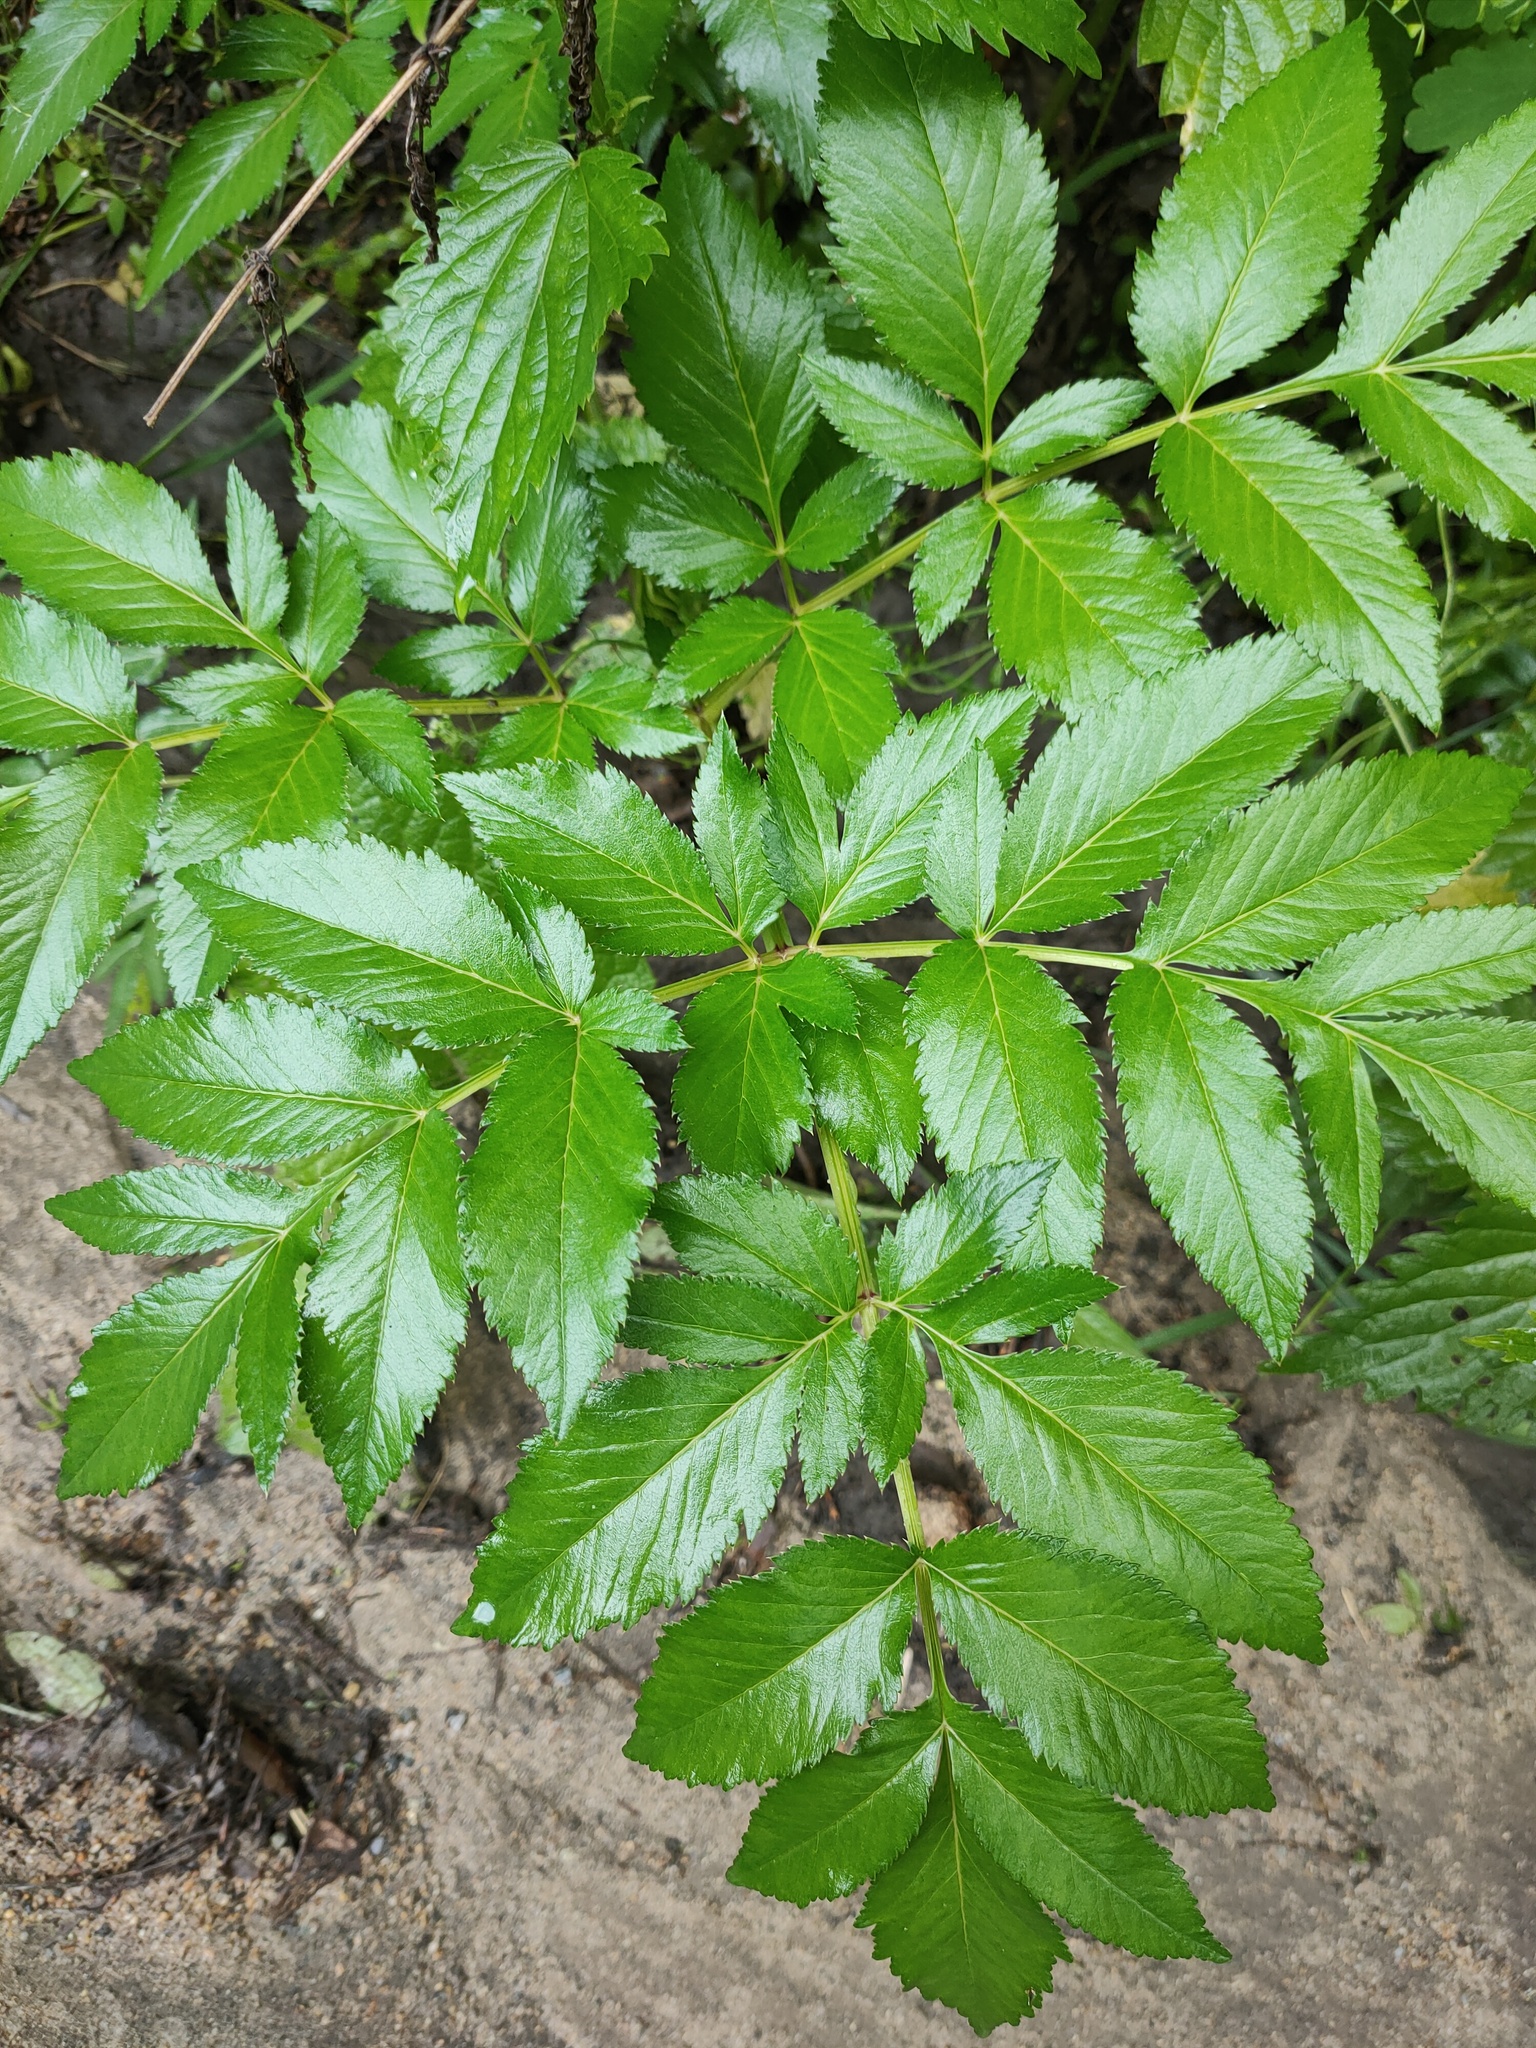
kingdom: Plantae
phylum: Tracheophyta
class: Magnoliopsida
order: Apiales
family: Apiaceae
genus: Angelica
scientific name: Angelica sylvestris
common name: Wild angelica
